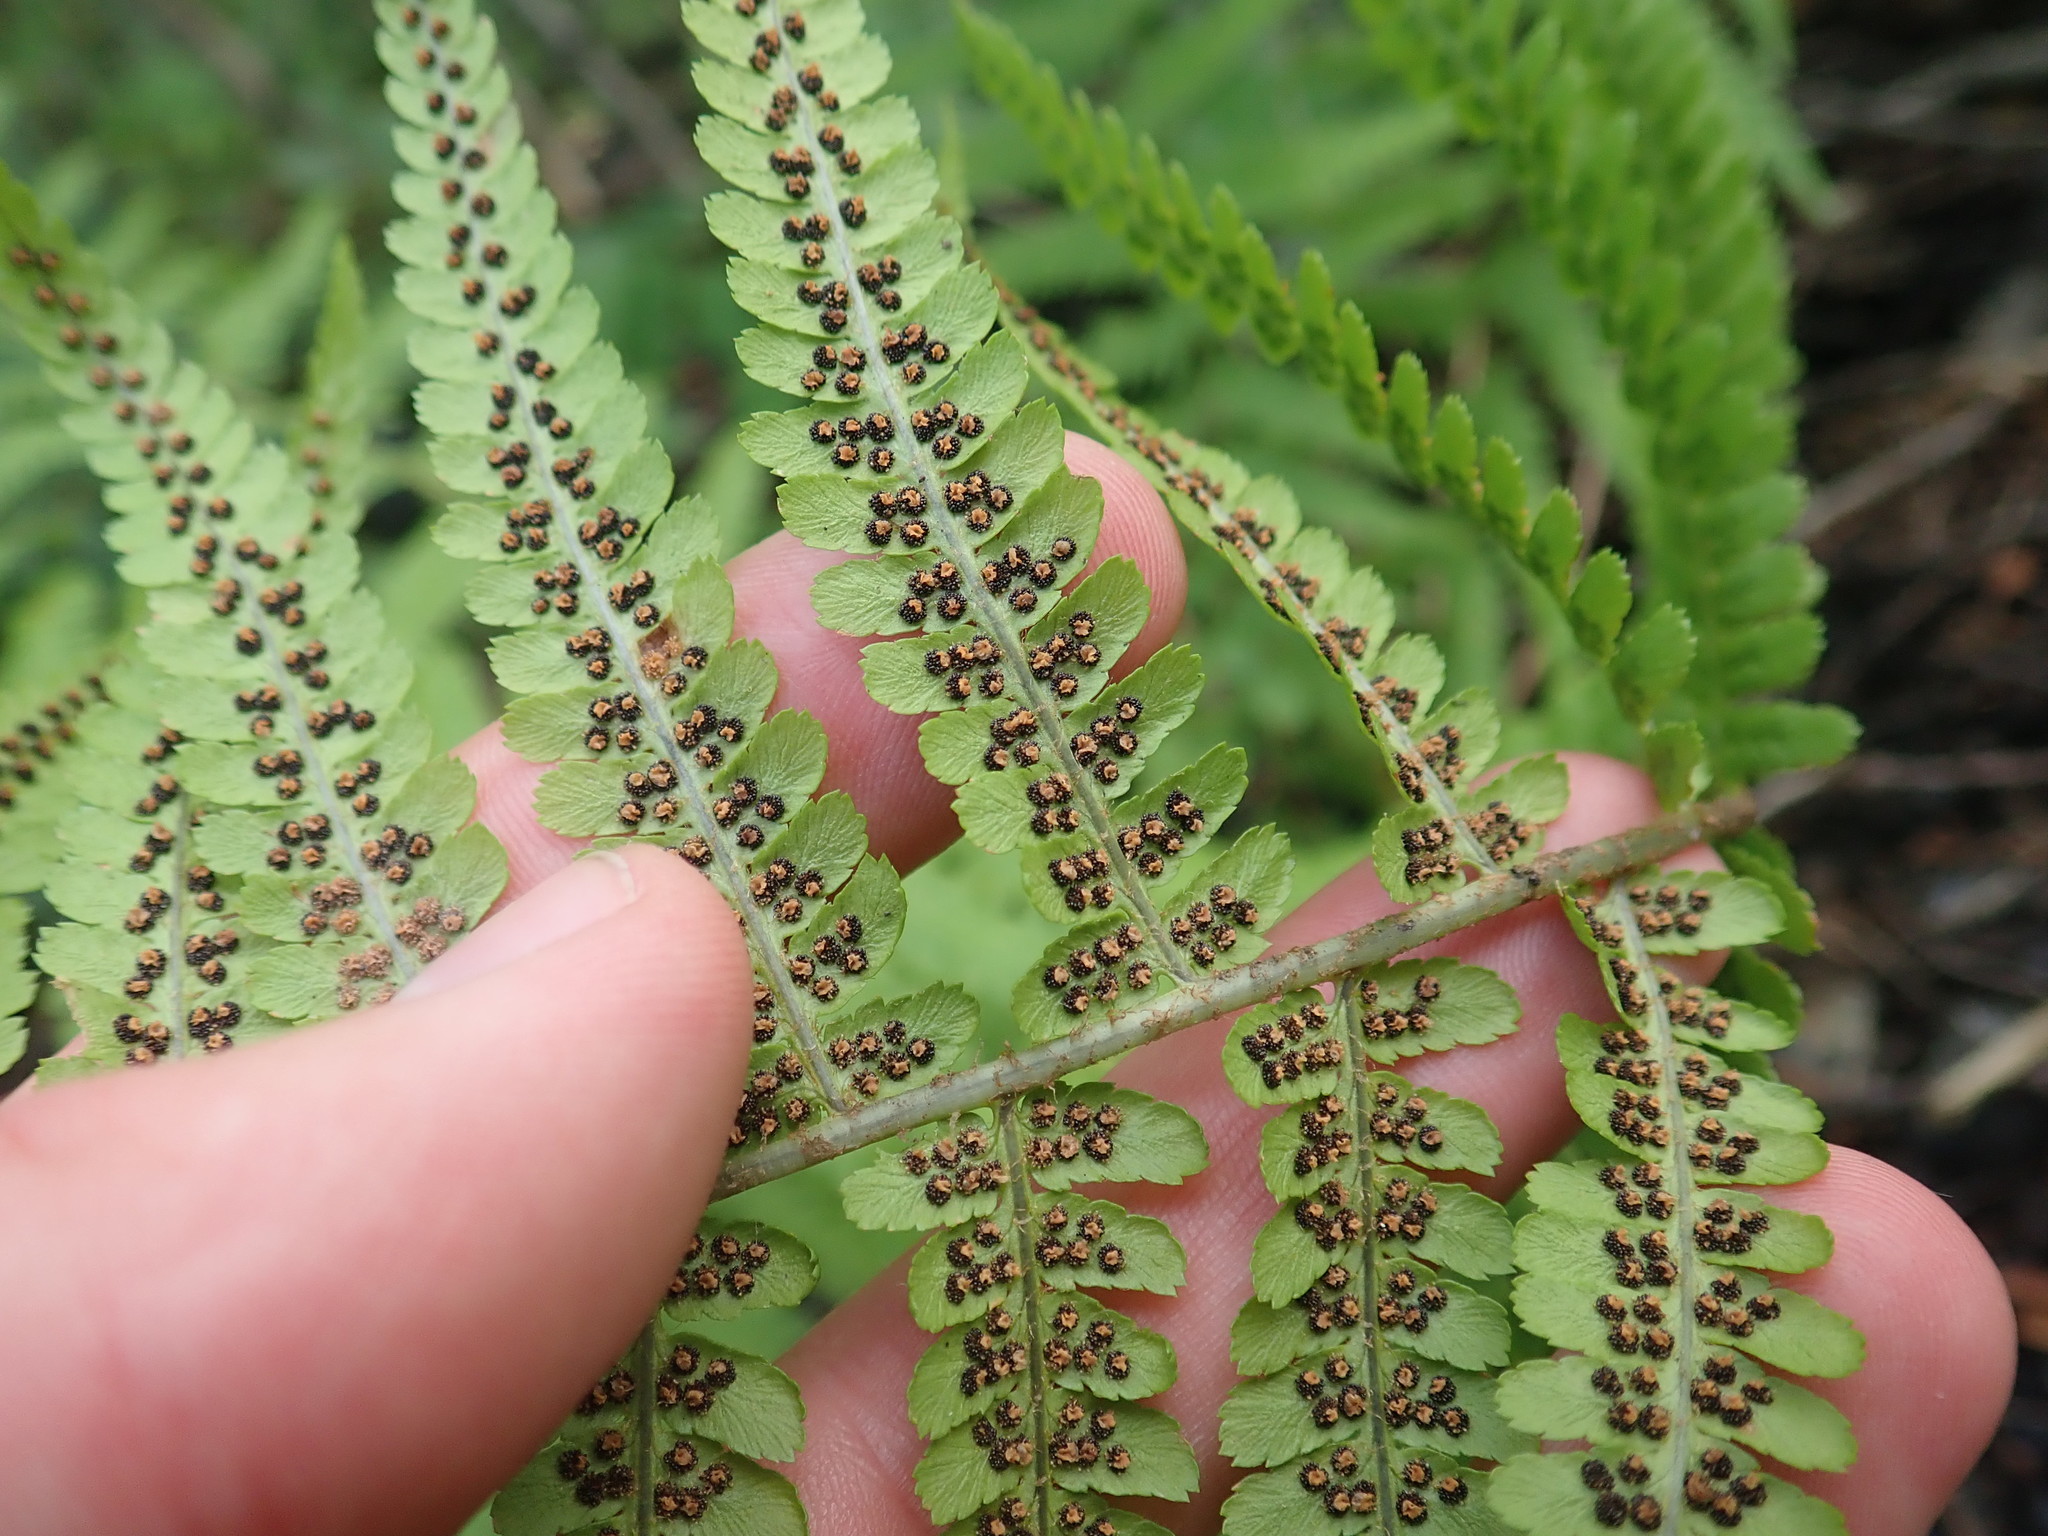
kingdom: Plantae
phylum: Tracheophyta
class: Polypodiopsida
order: Polypodiales
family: Dryopteridaceae
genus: Dryopteris
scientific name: Dryopteris filix-mas
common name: Male fern
